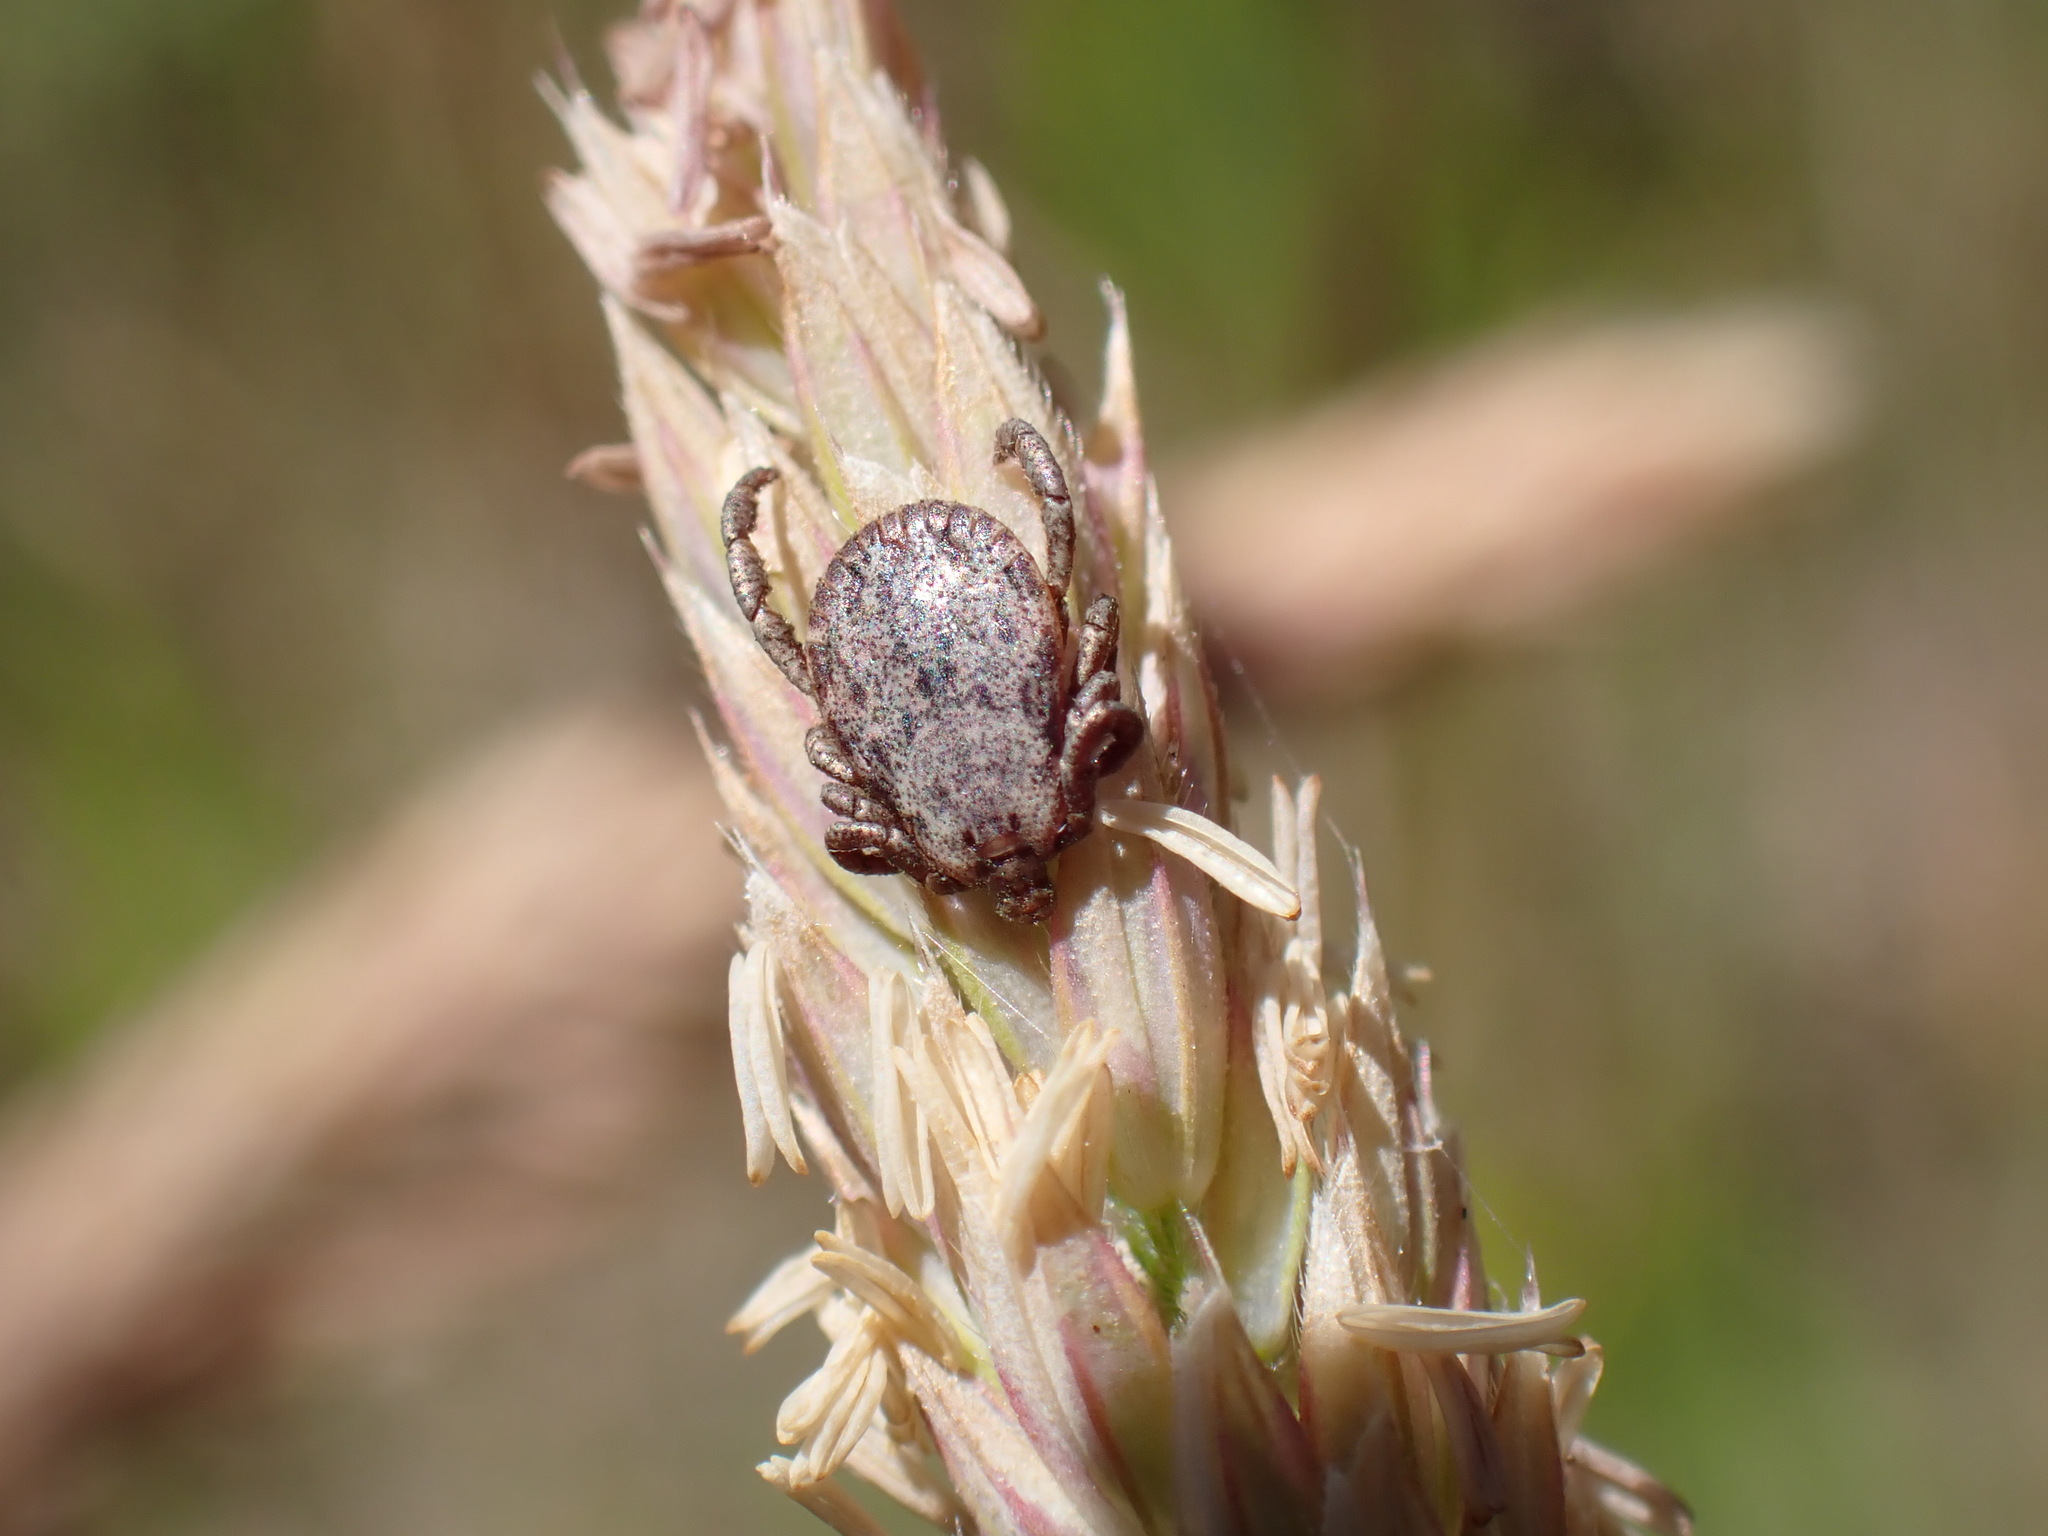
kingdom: Animalia
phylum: Arthropoda
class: Arachnida
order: Ixodida
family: Ixodidae
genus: Dermacentor
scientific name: Dermacentor occidentalis
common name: Net tick
